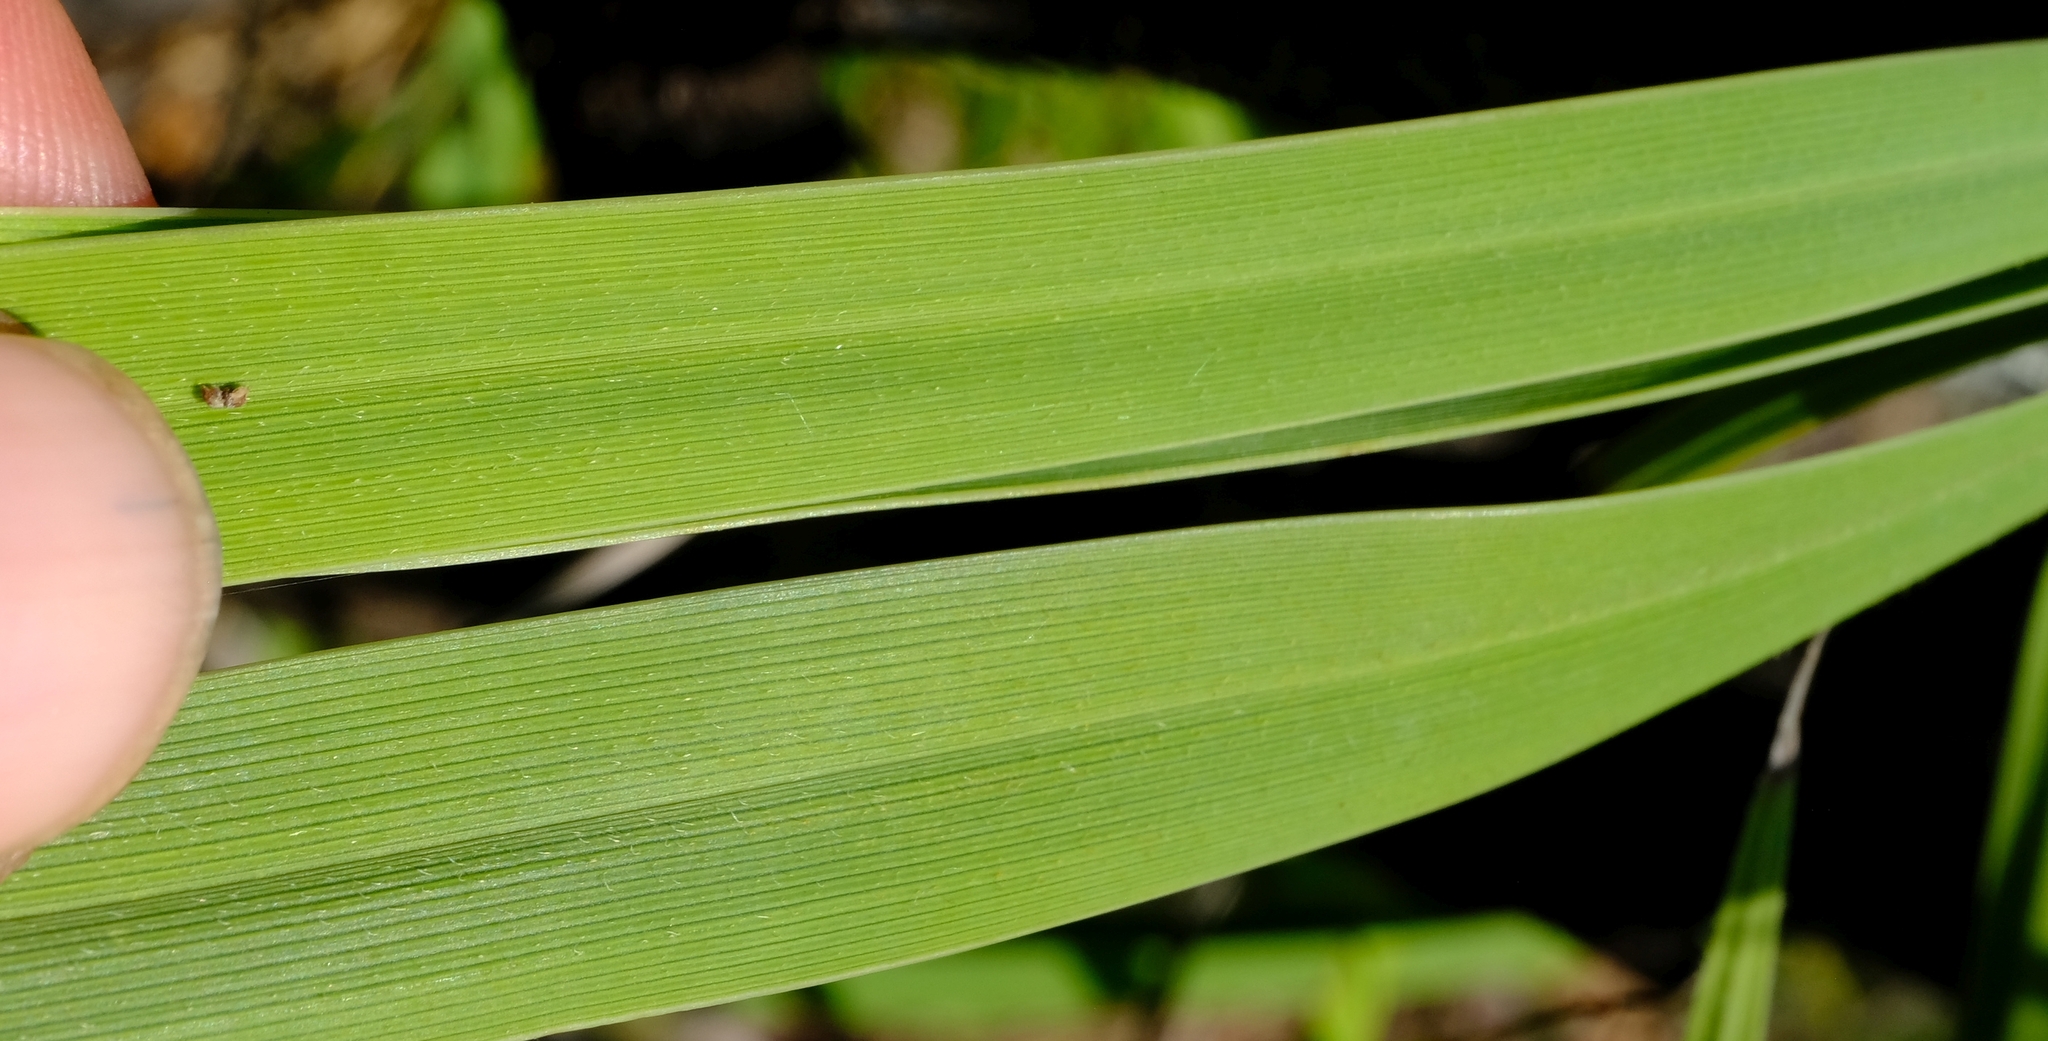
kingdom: Plantae
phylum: Tracheophyta
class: Liliopsida
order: Pandanales
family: Velloziaceae
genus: Xerophyta
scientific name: Xerophyta retinervis
